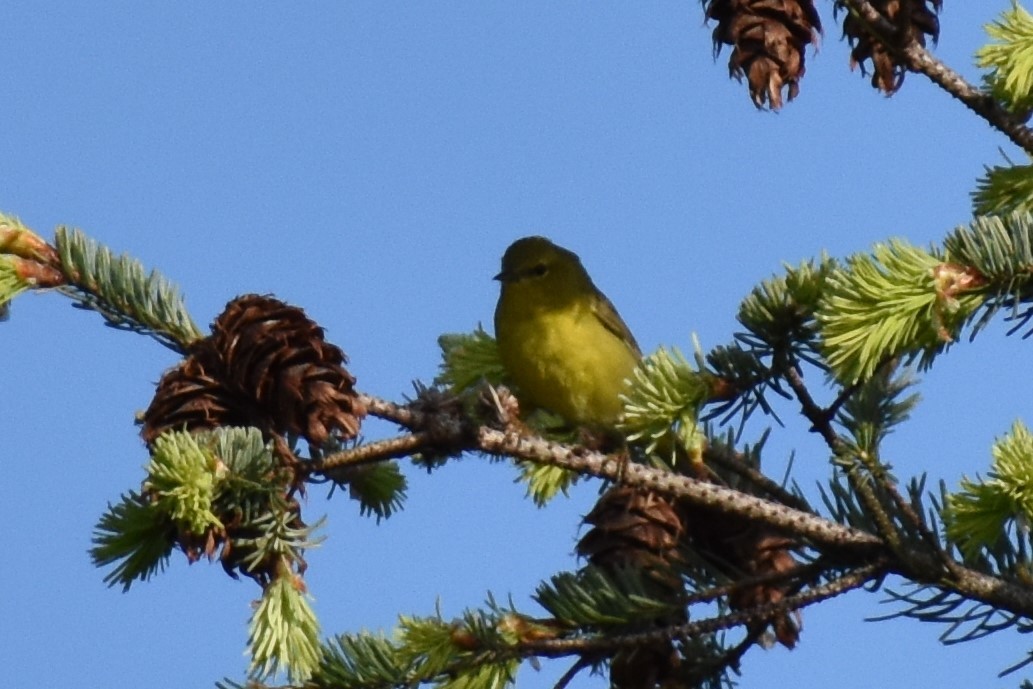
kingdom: Animalia
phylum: Chordata
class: Aves
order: Passeriformes
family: Parulidae
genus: Leiothlypis
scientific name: Leiothlypis celata
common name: Orange-crowned warbler
